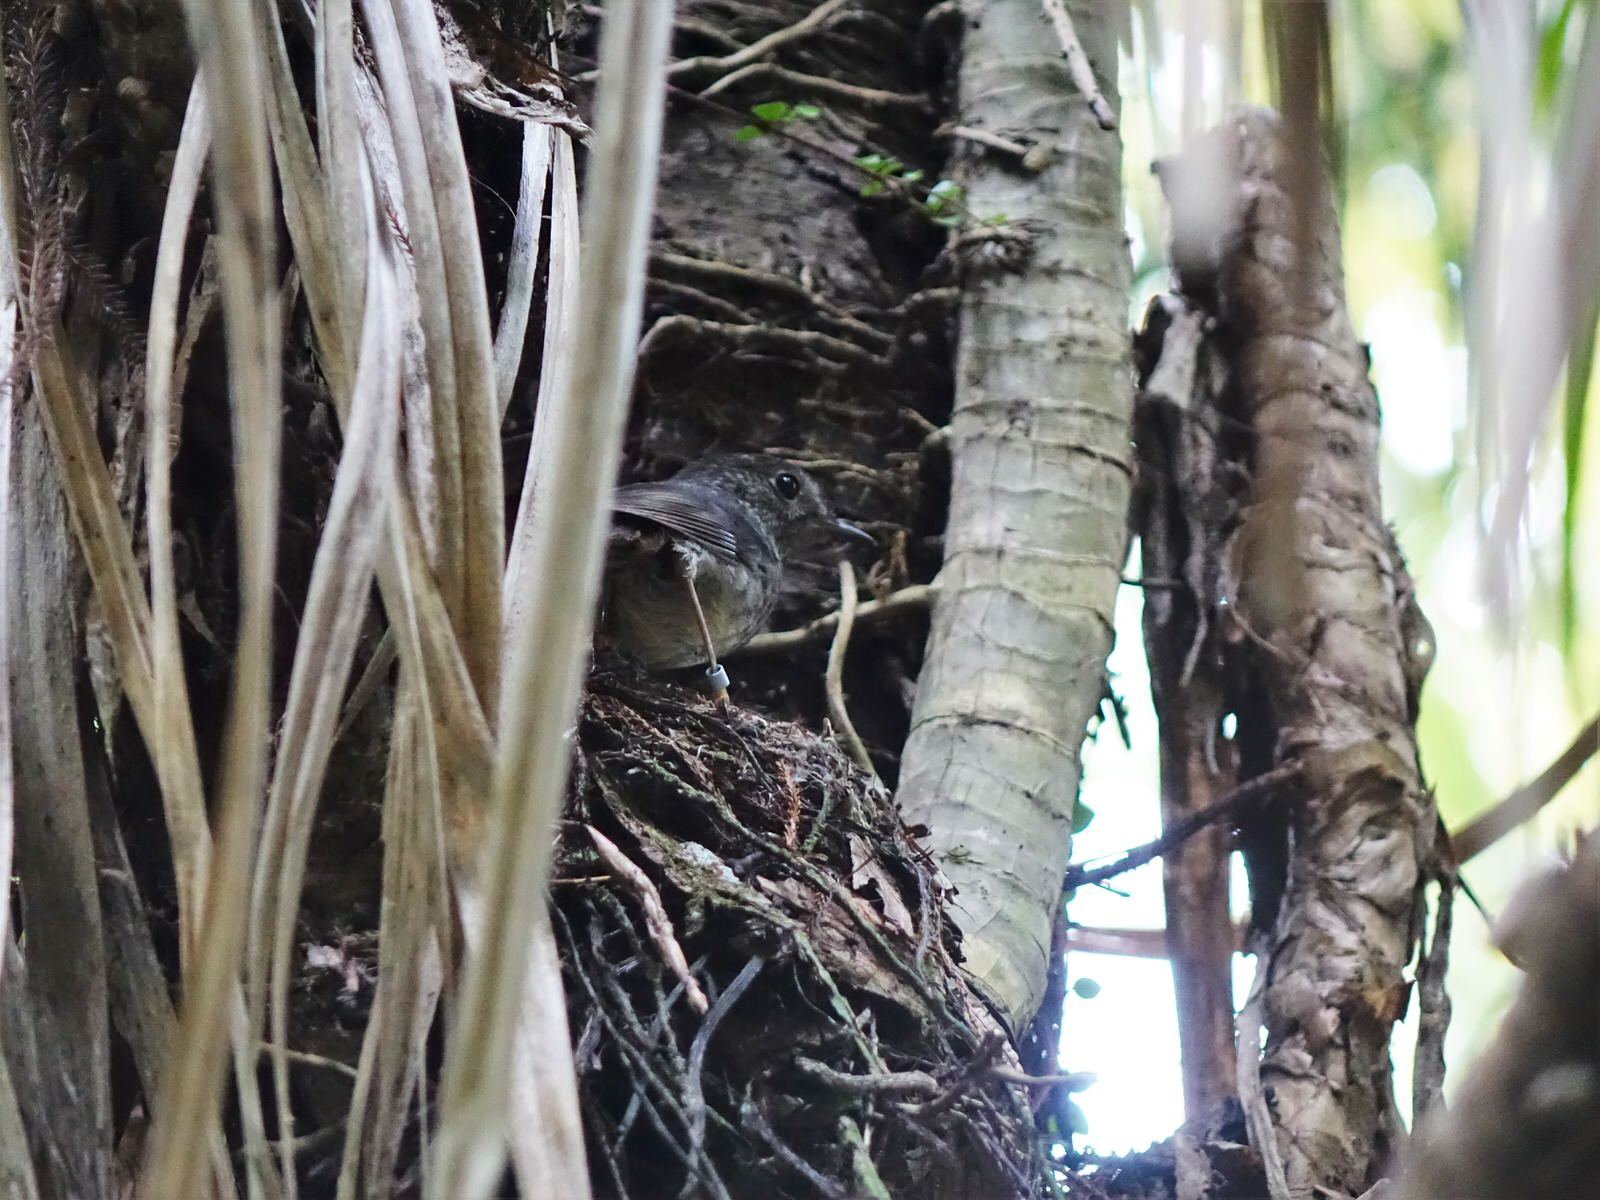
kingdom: Animalia
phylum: Chordata
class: Aves
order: Passeriformes
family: Petroicidae
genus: Petroica
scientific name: Petroica australis
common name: New zealand robin
